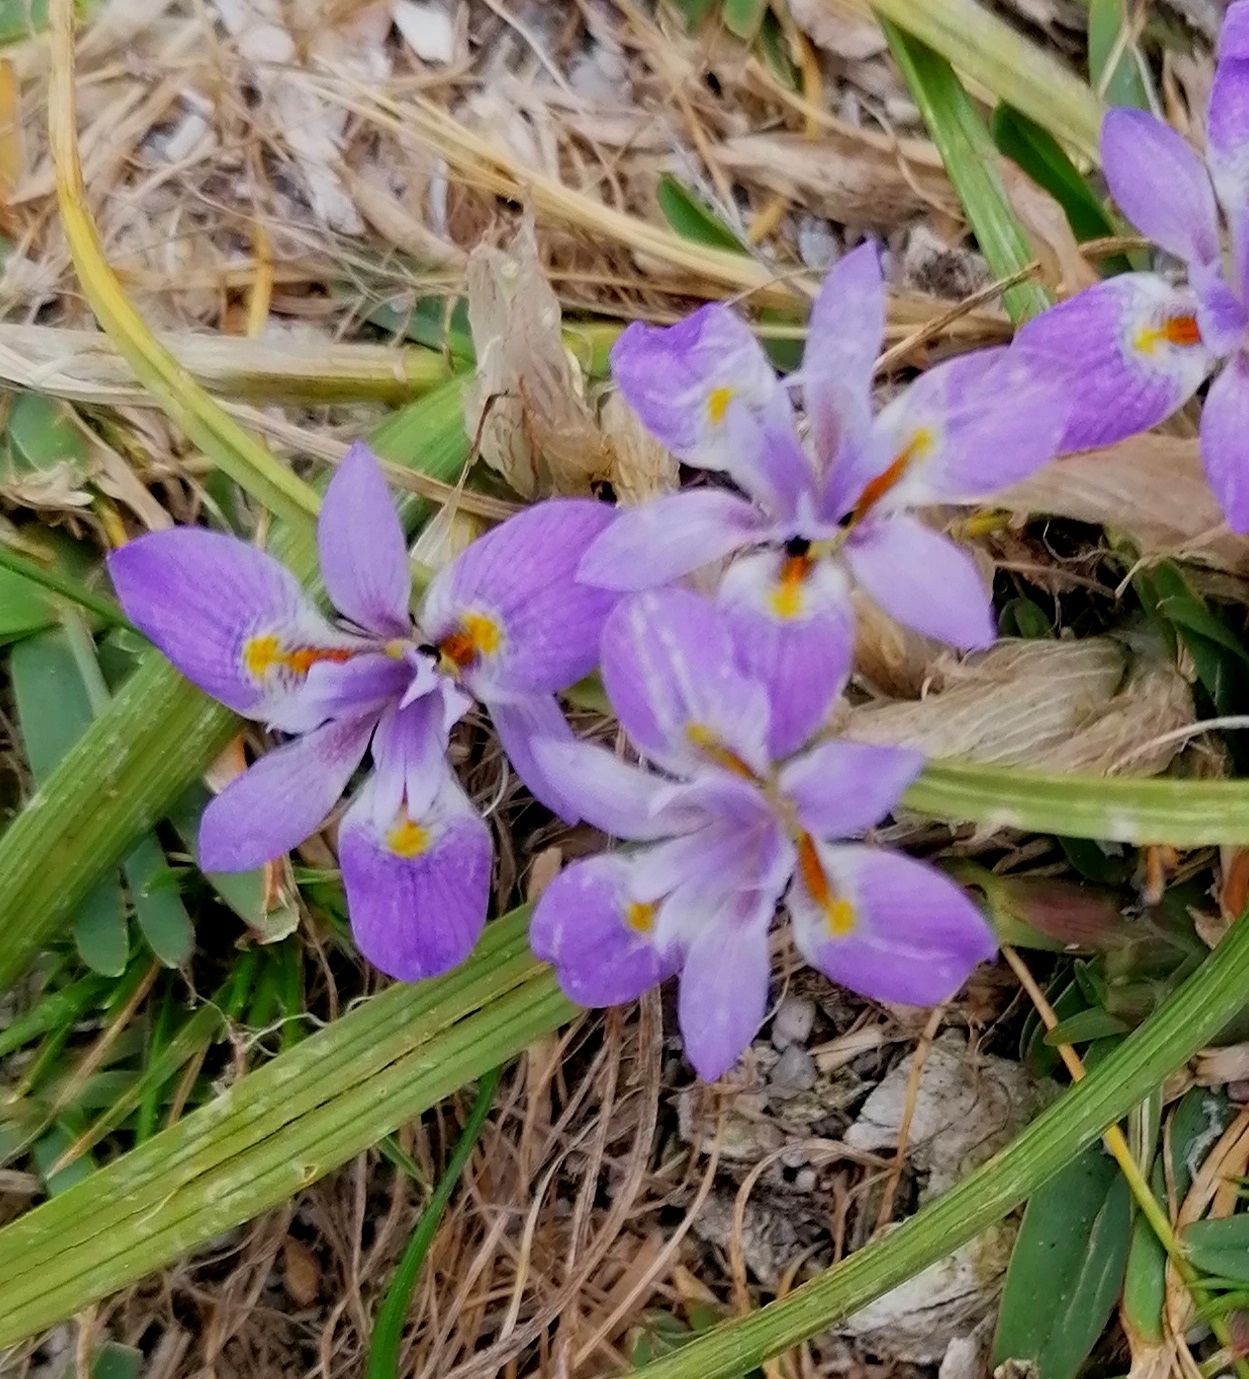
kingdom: Plantae
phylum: Tracheophyta
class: Liliopsida
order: Asparagales
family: Iridaceae
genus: Moraea
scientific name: Moraea setifolia
